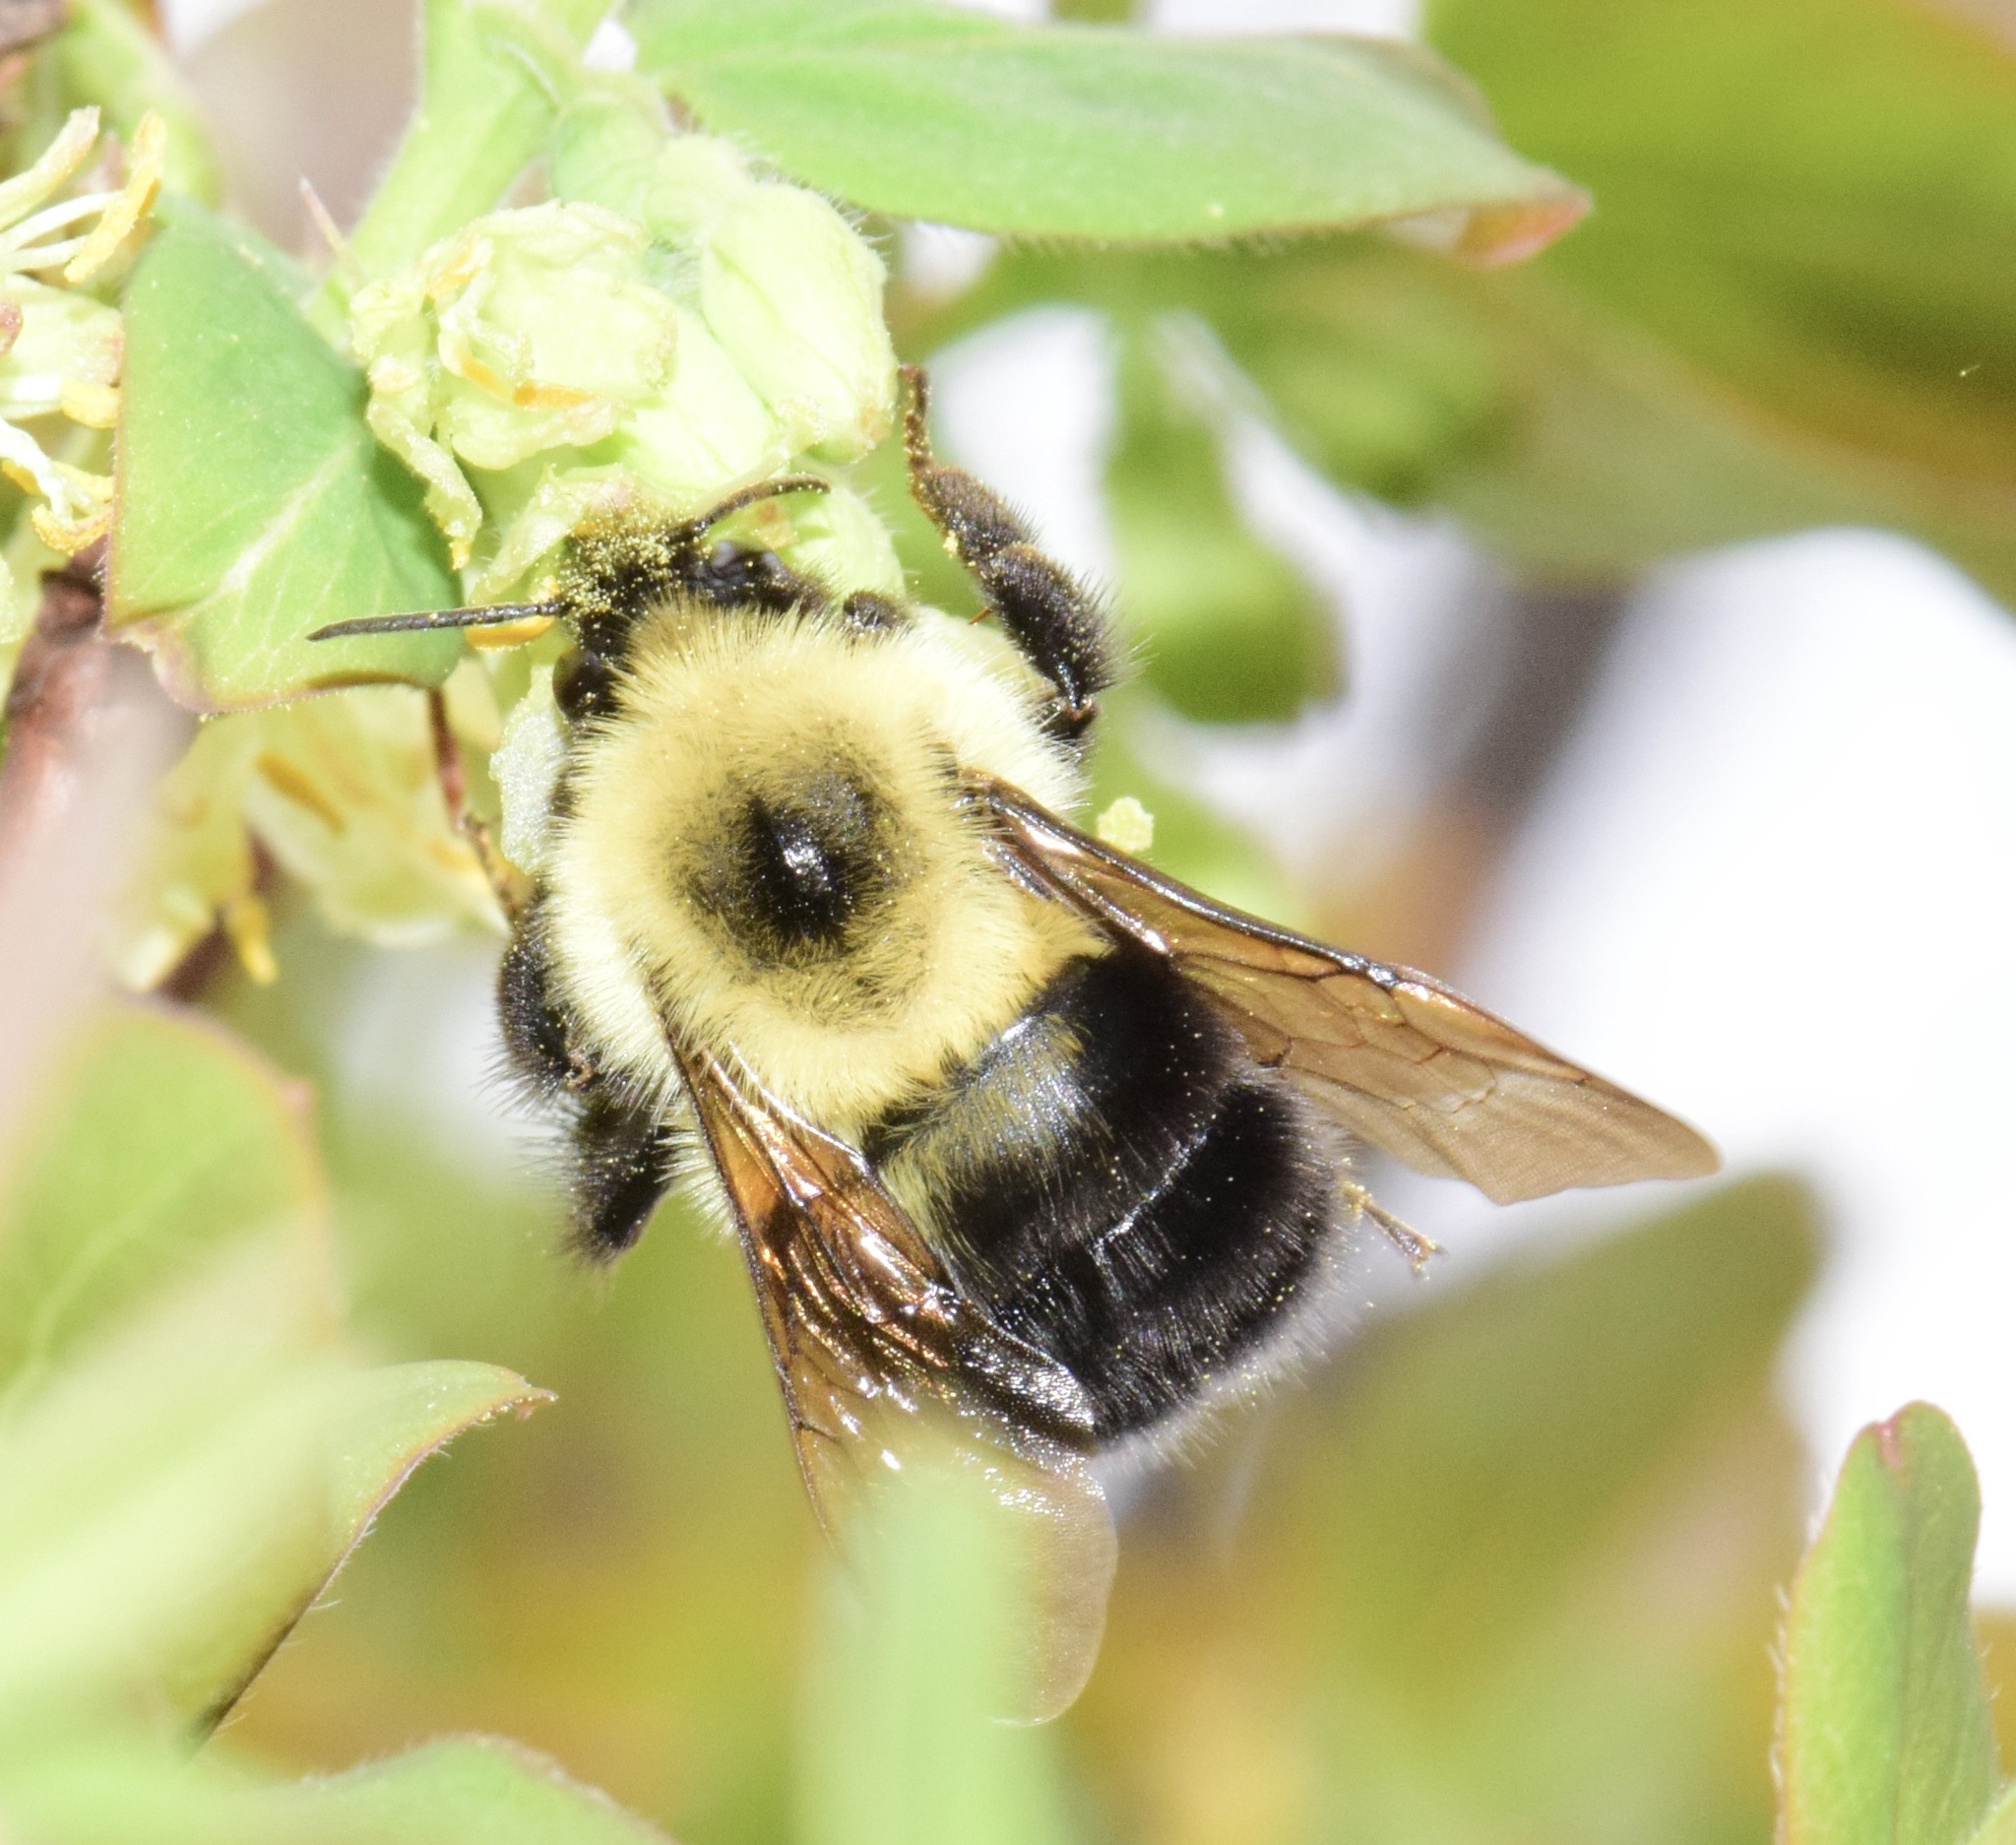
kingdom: Animalia
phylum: Arthropoda
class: Insecta
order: Hymenoptera
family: Apidae
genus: Bombus
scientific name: Bombus bimaculatus
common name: Two-spotted bumble bee
